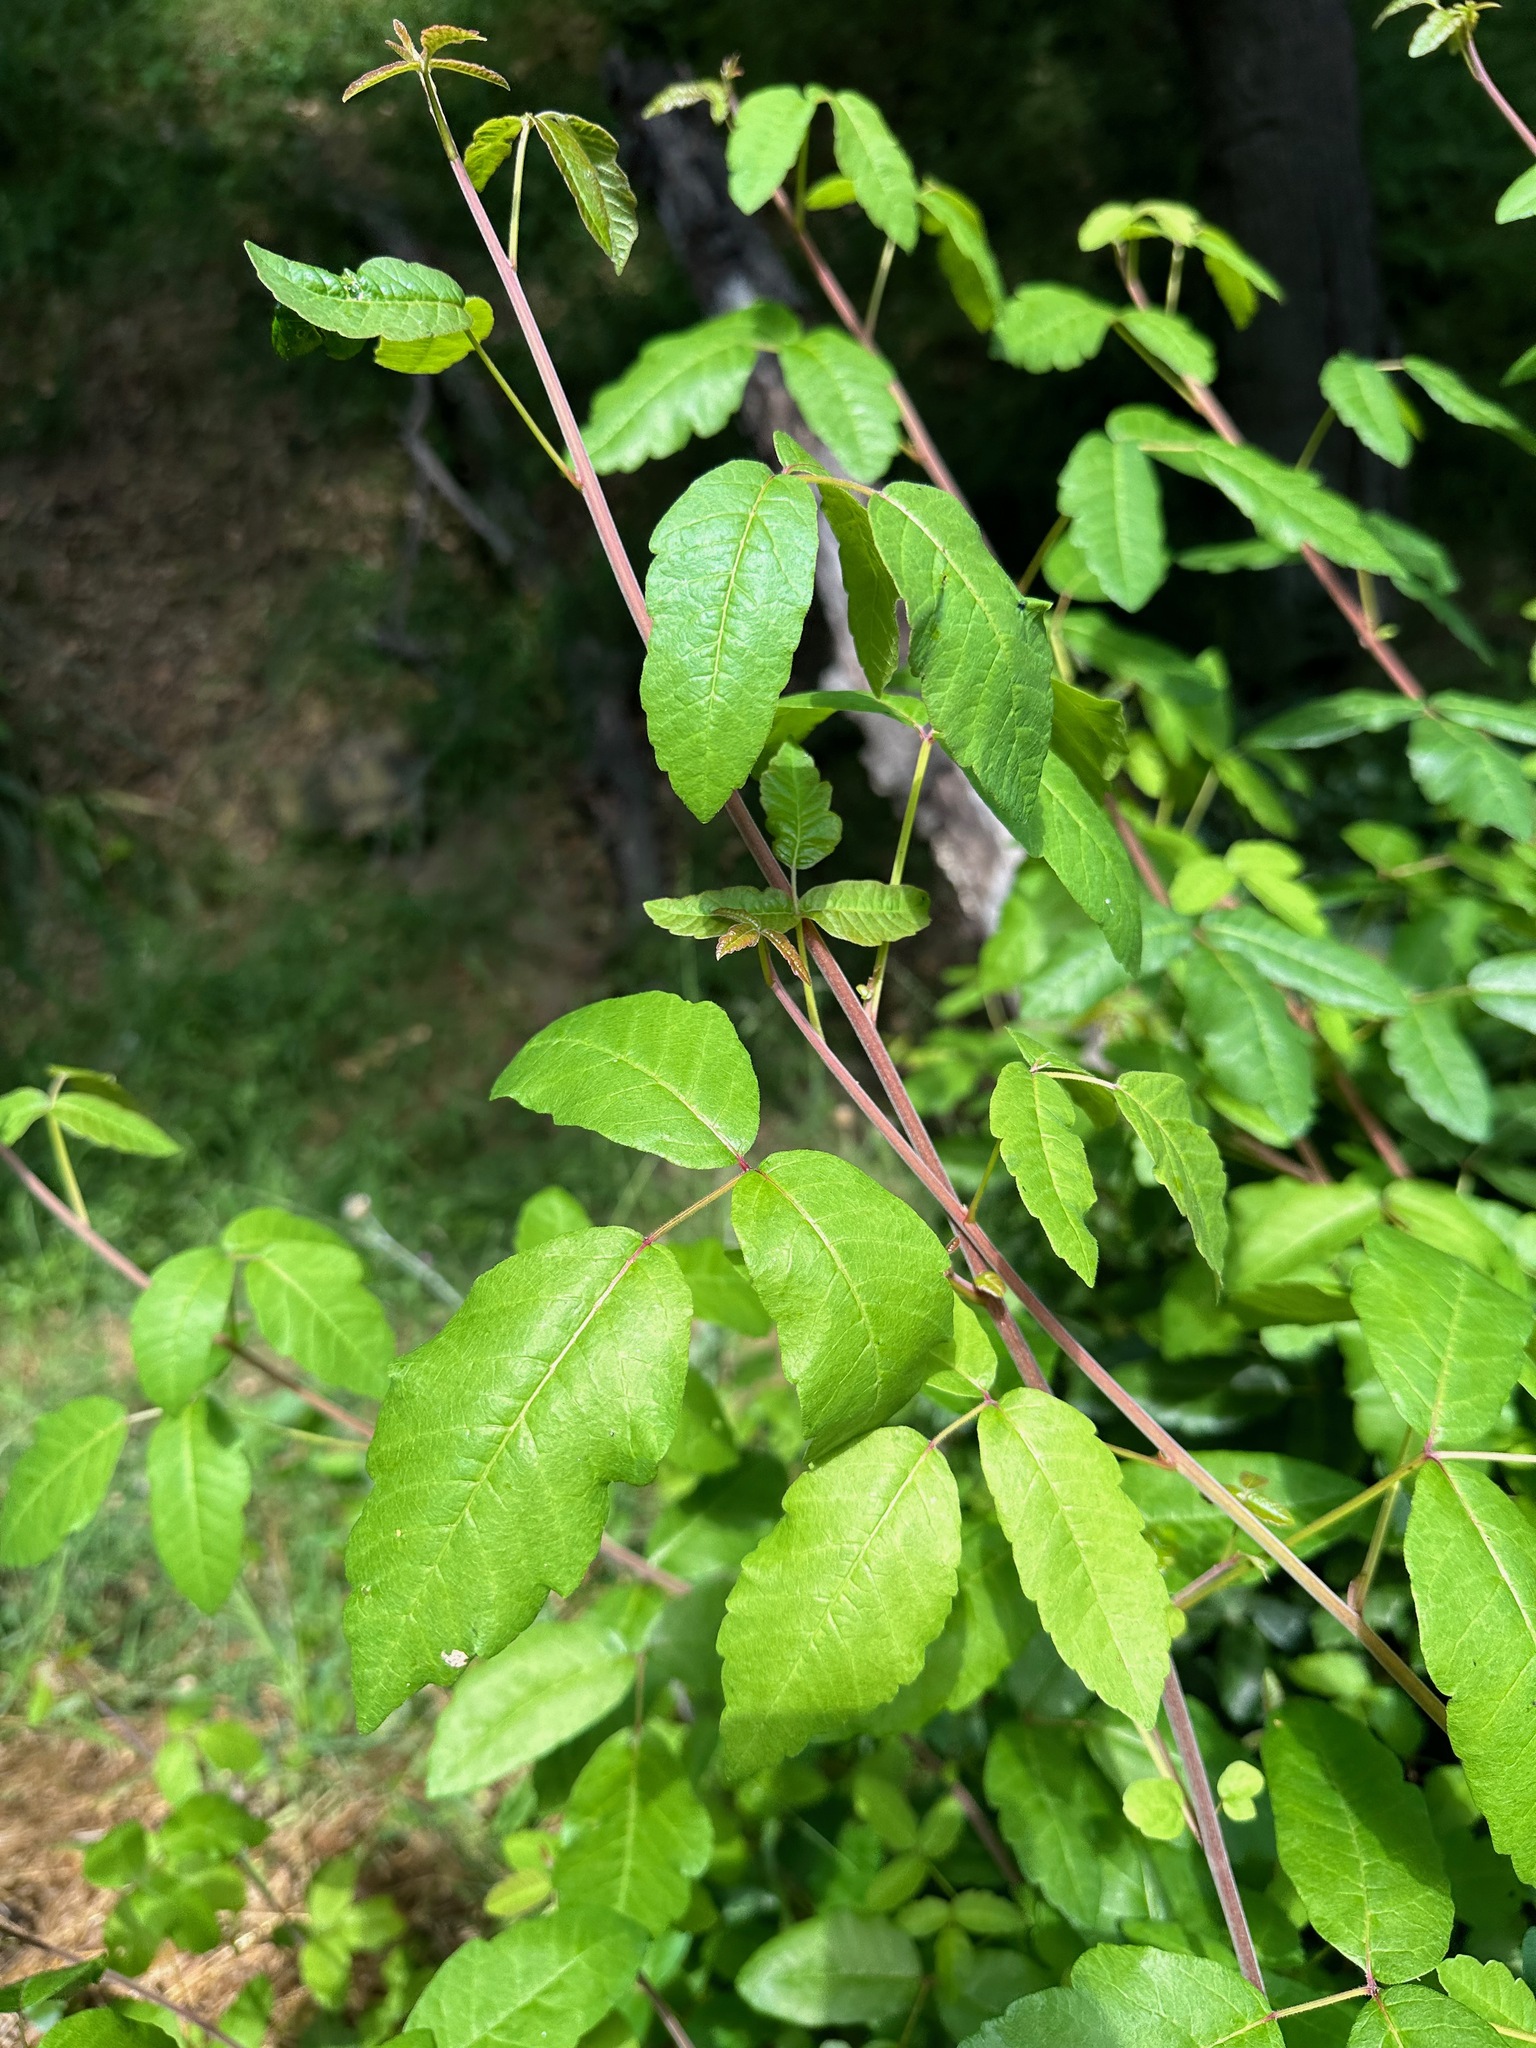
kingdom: Plantae
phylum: Tracheophyta
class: Magnoliopsida
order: Sapindales
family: Anacardiaceae
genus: Toxicodendron
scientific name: Toxicodendron diversilobum
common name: Pacific poison-oak
